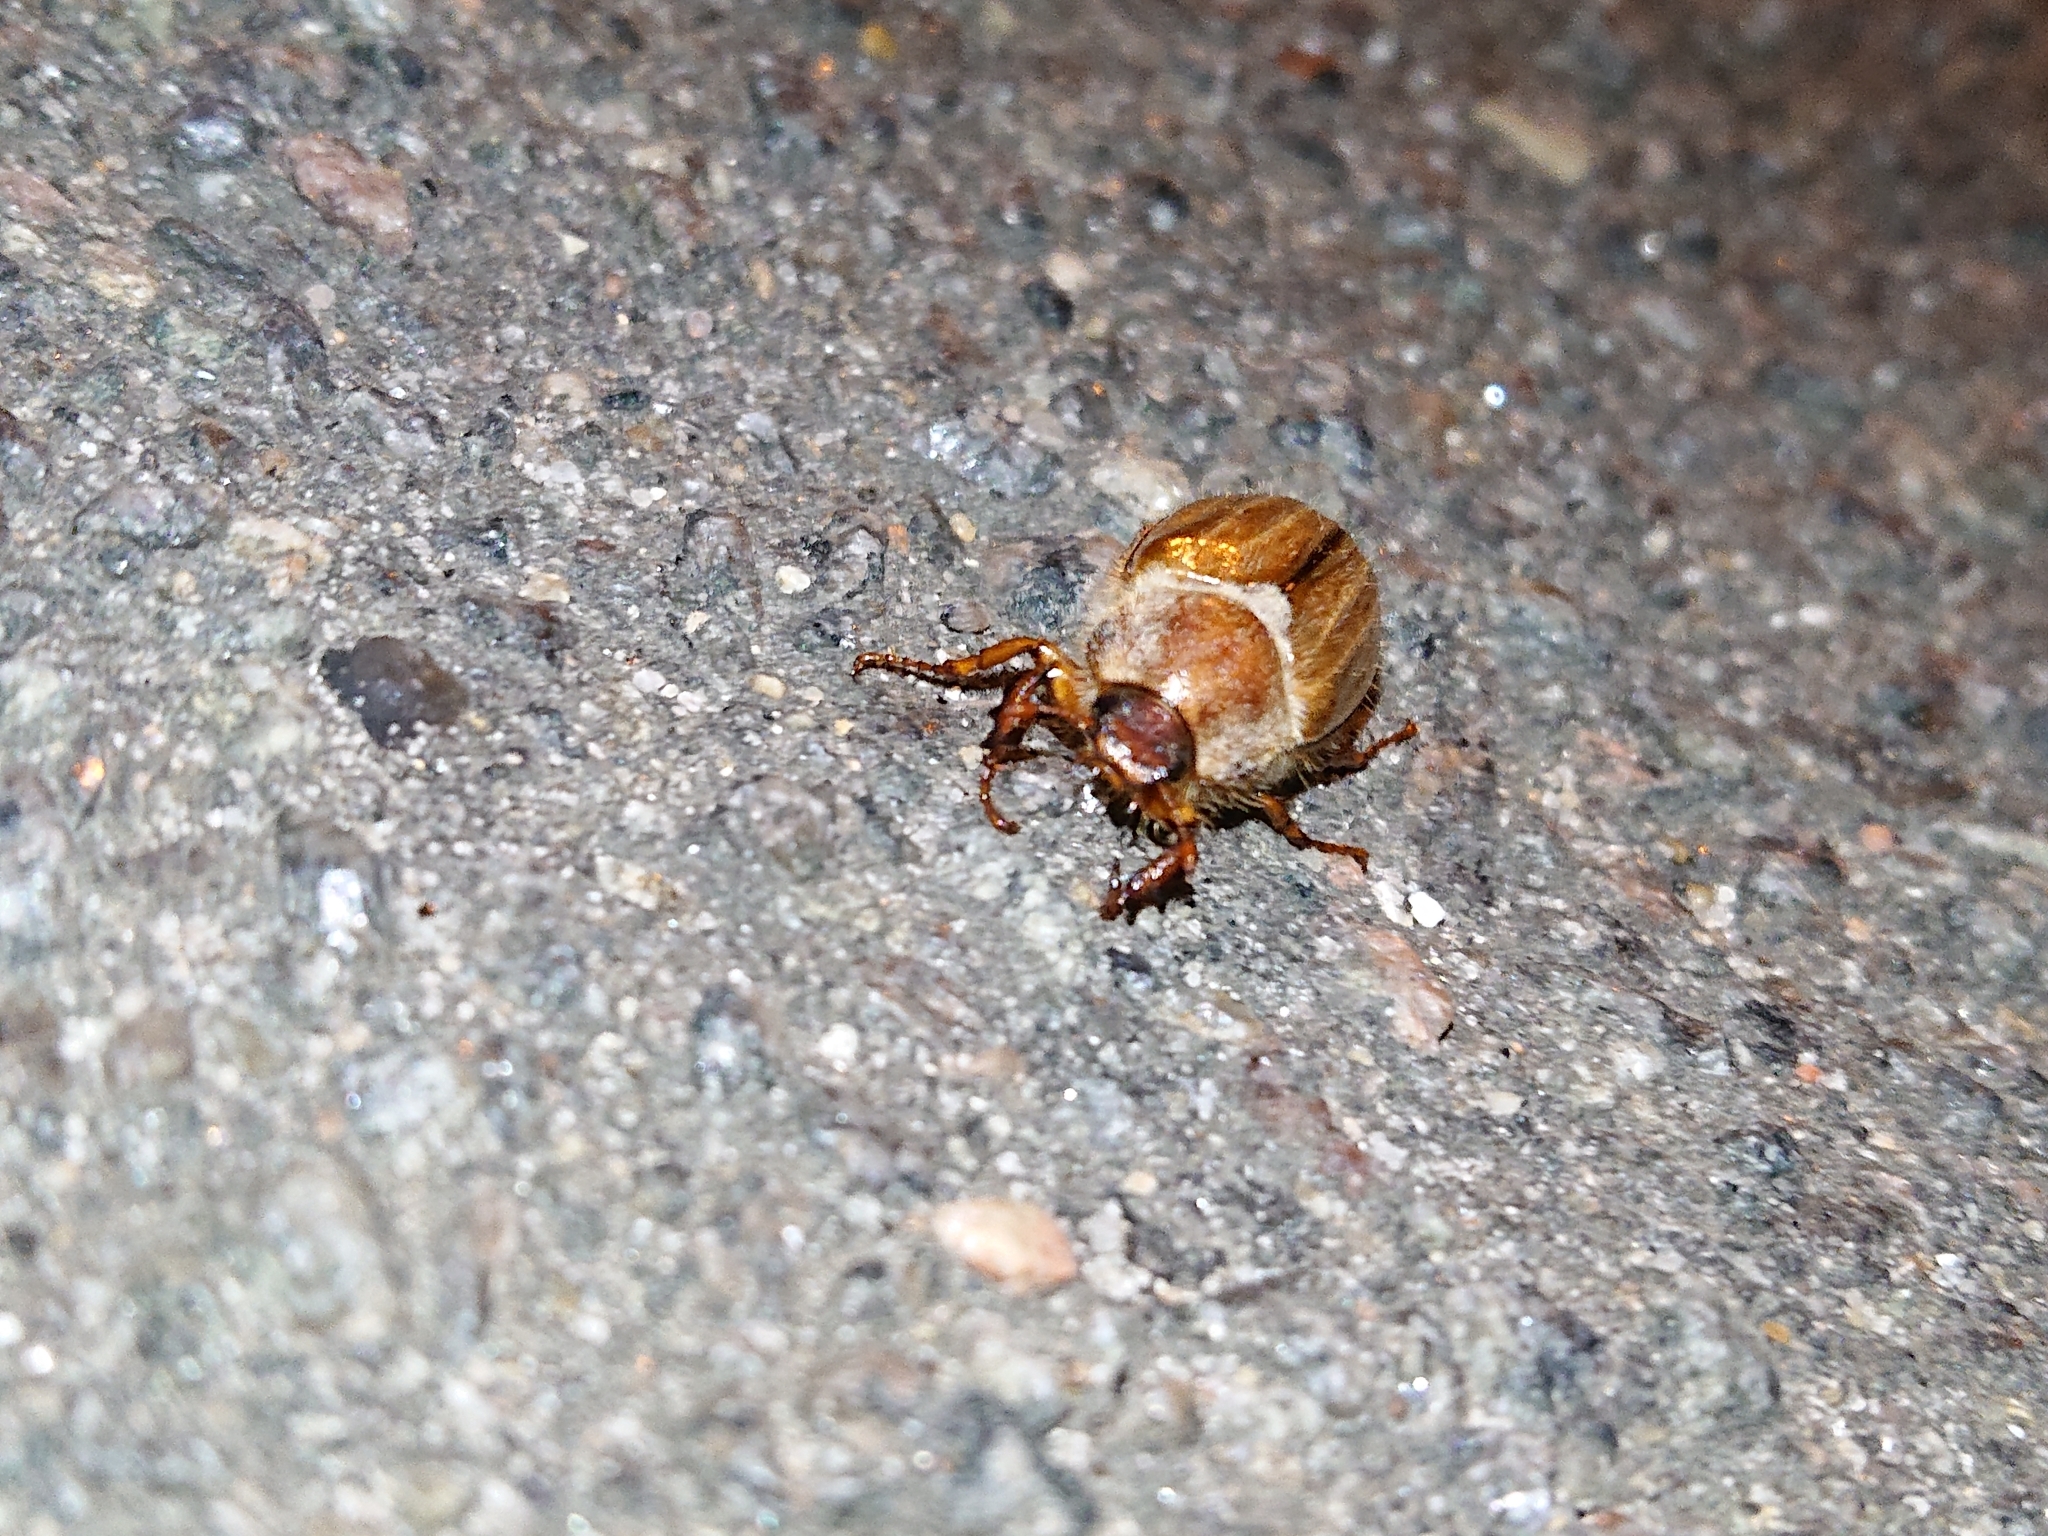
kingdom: Animalia
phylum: Arthropoda
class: Insecta
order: Coleoptera
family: Scarabaeidae
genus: Amphimallon
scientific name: Amphimallon solstitiale
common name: Summer chafer
